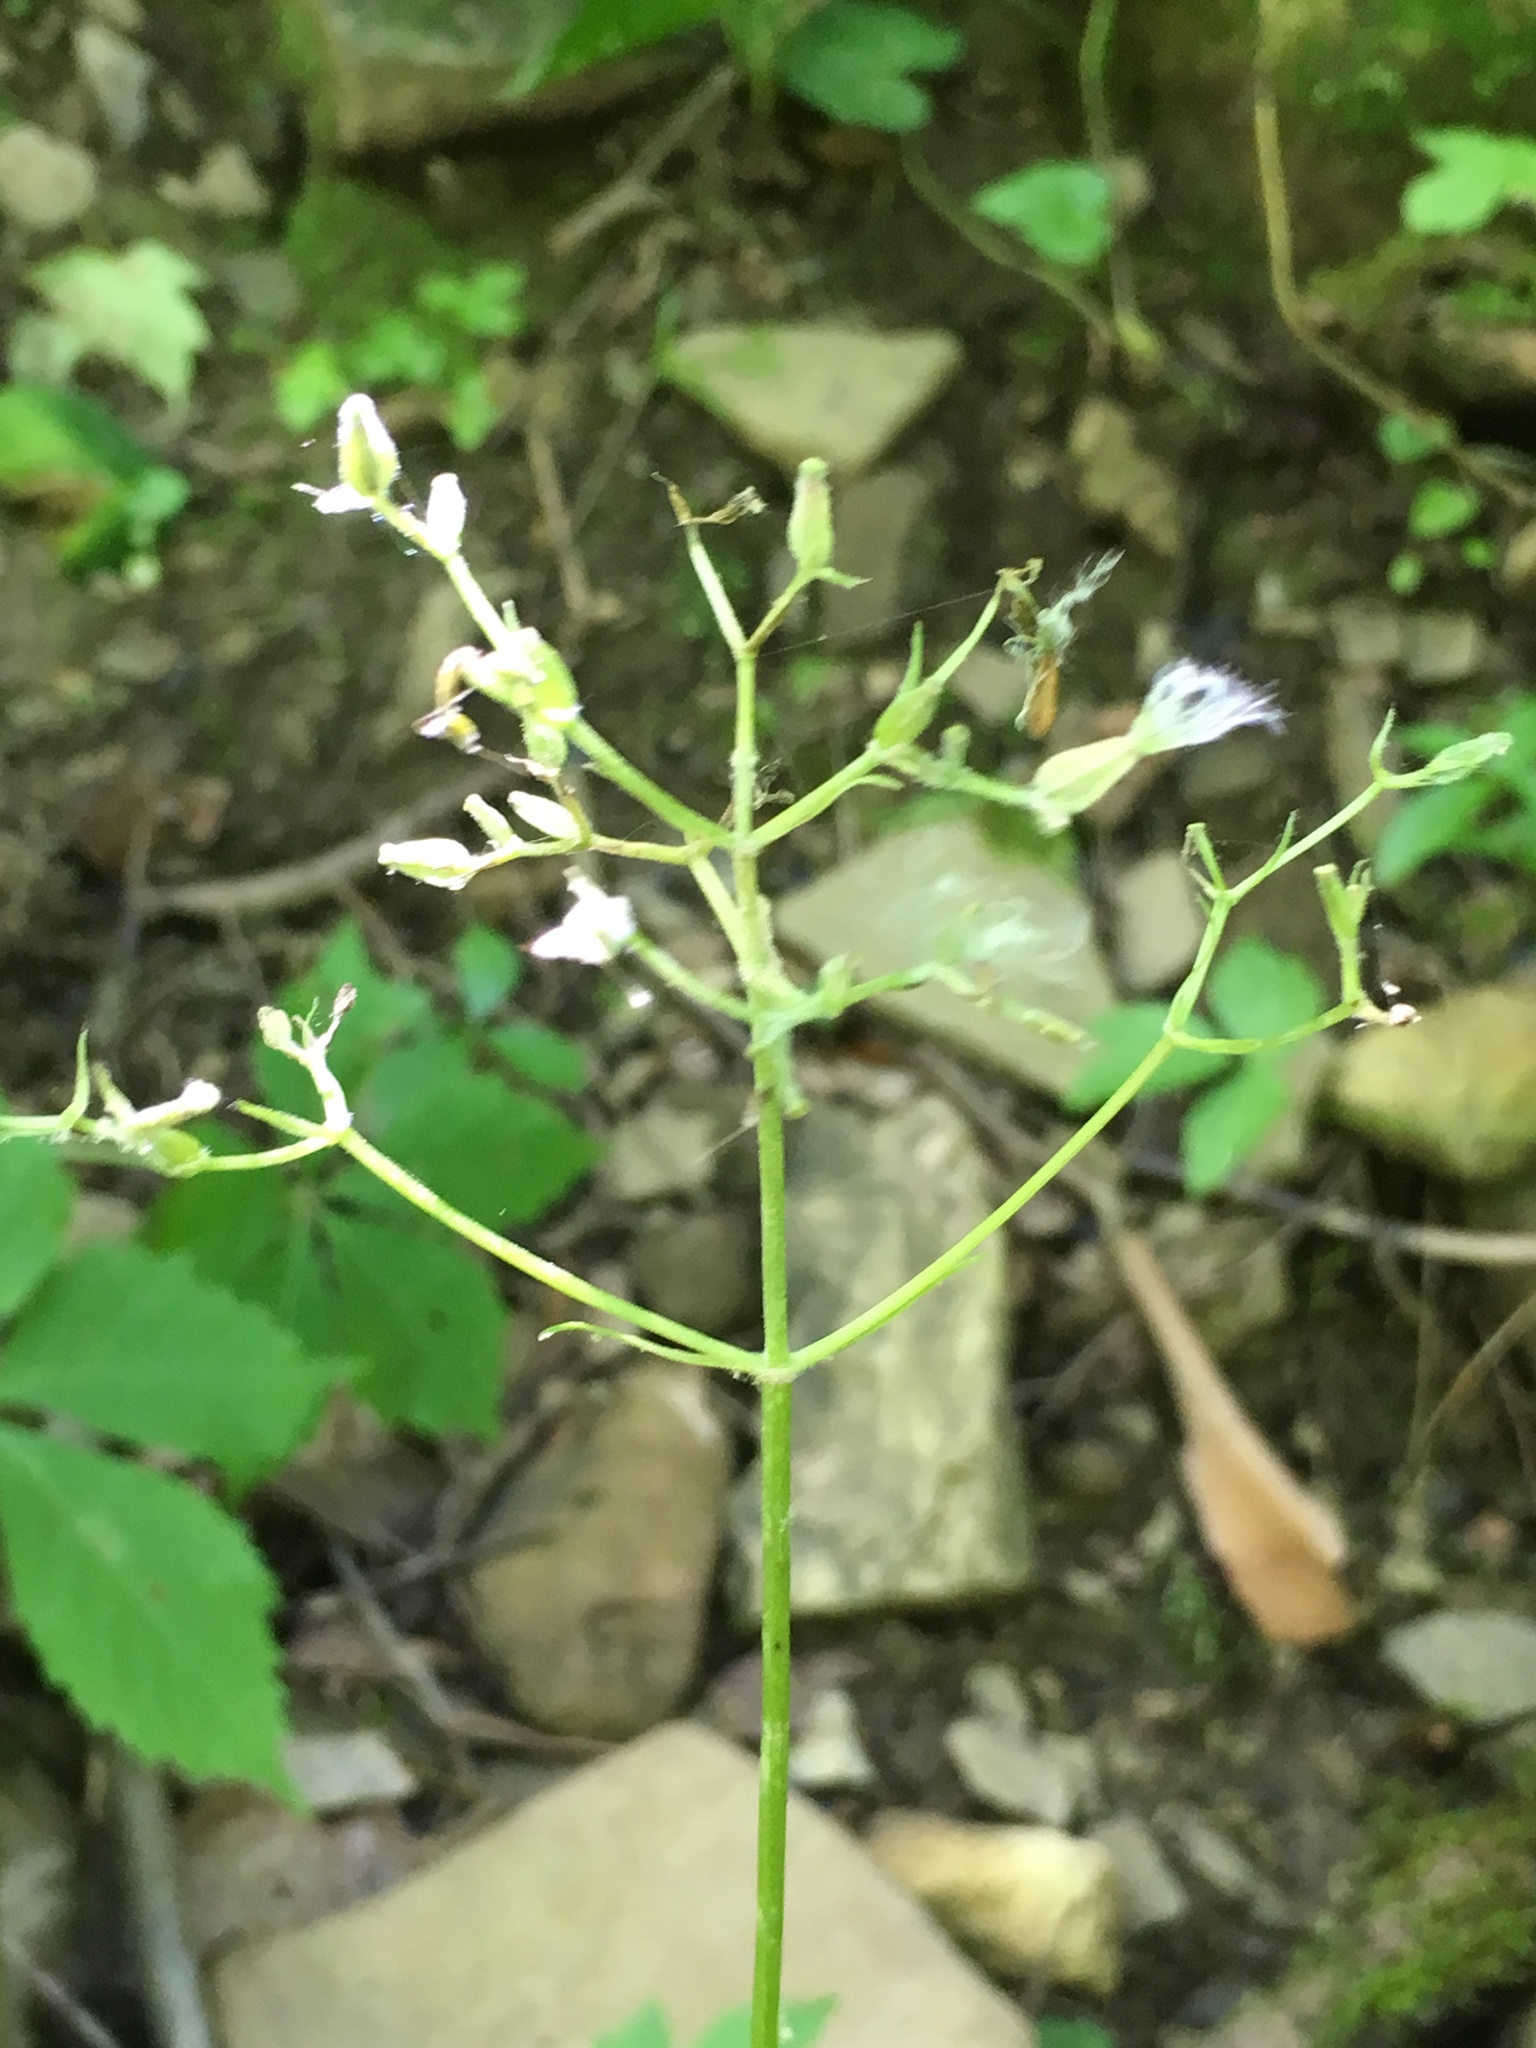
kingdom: Plantae
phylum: Tracheophyta
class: Magnoliopsida
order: Dipsacales
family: Caprifoliaceae
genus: Valeriana
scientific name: Valeriana pauciflora
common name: Long-tube valeriana
